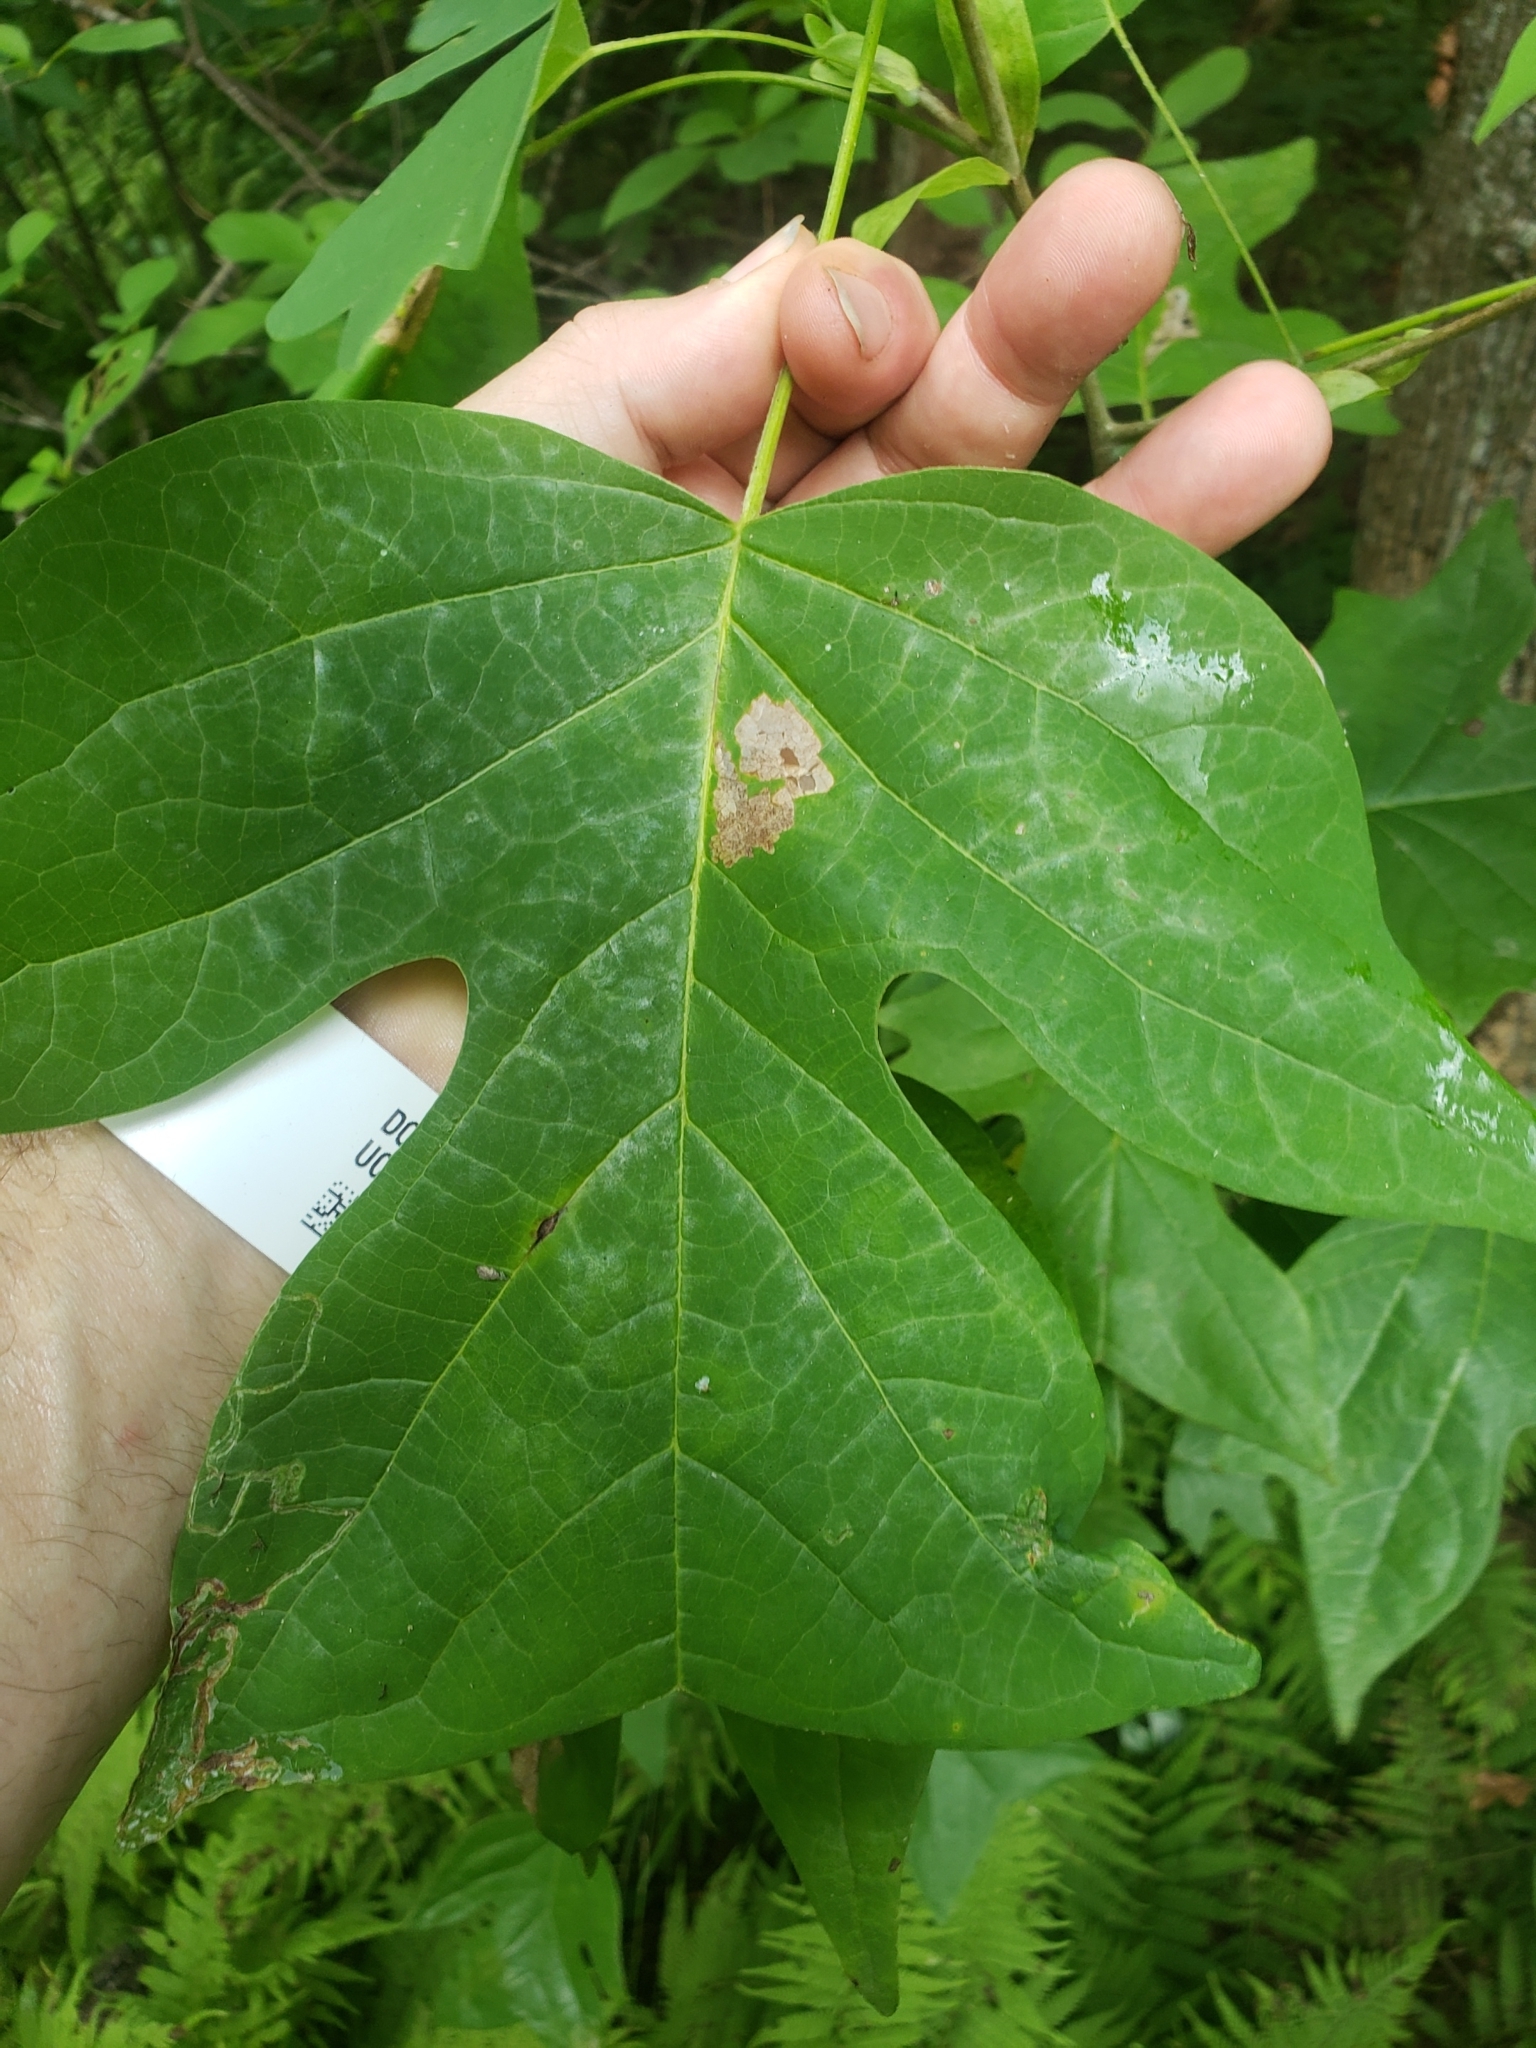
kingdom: Animalia
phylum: Arthropoda
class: Insecta
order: Lepidoptera
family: Gracillariidae
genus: Phyllocnistis
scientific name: Phyllocnistis liriodendronella
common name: Tulip tree leaf miner
